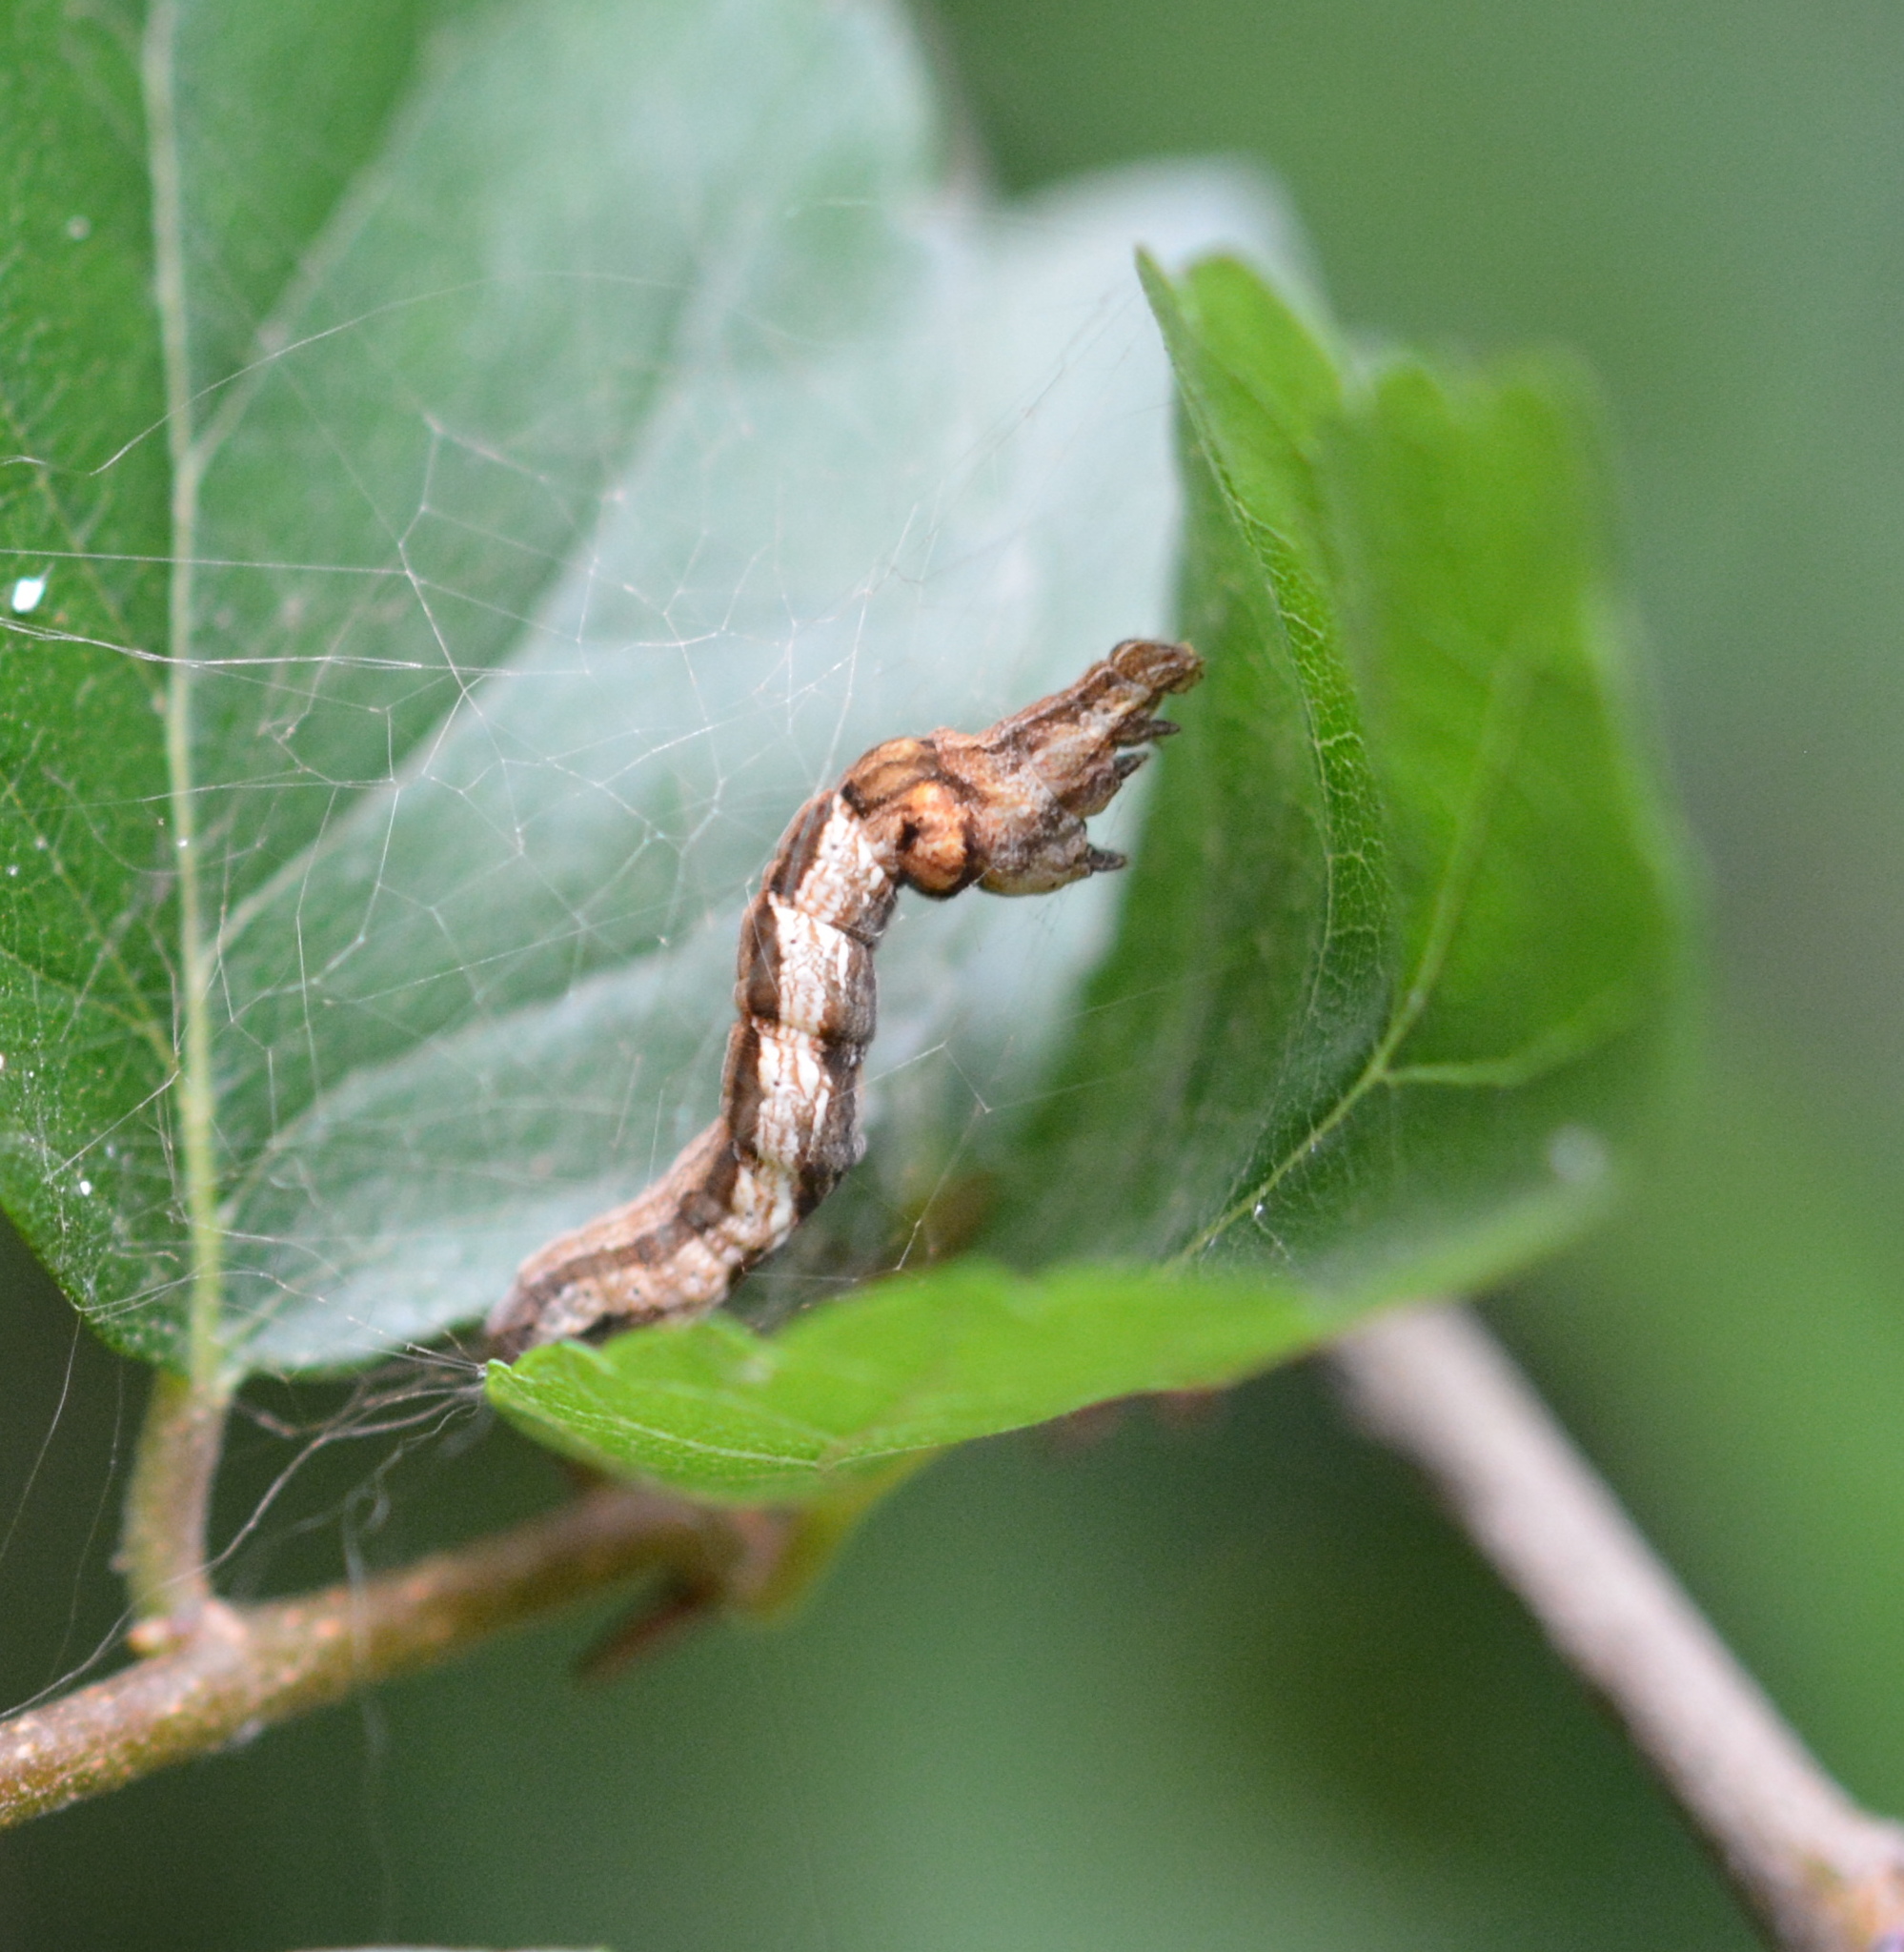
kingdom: Animalia
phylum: Arthropoda
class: Insecta
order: Lepidoptera
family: Geometridae
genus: Protoboarmia
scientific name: Protoboarmia porcelaria
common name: Porcelain gray
